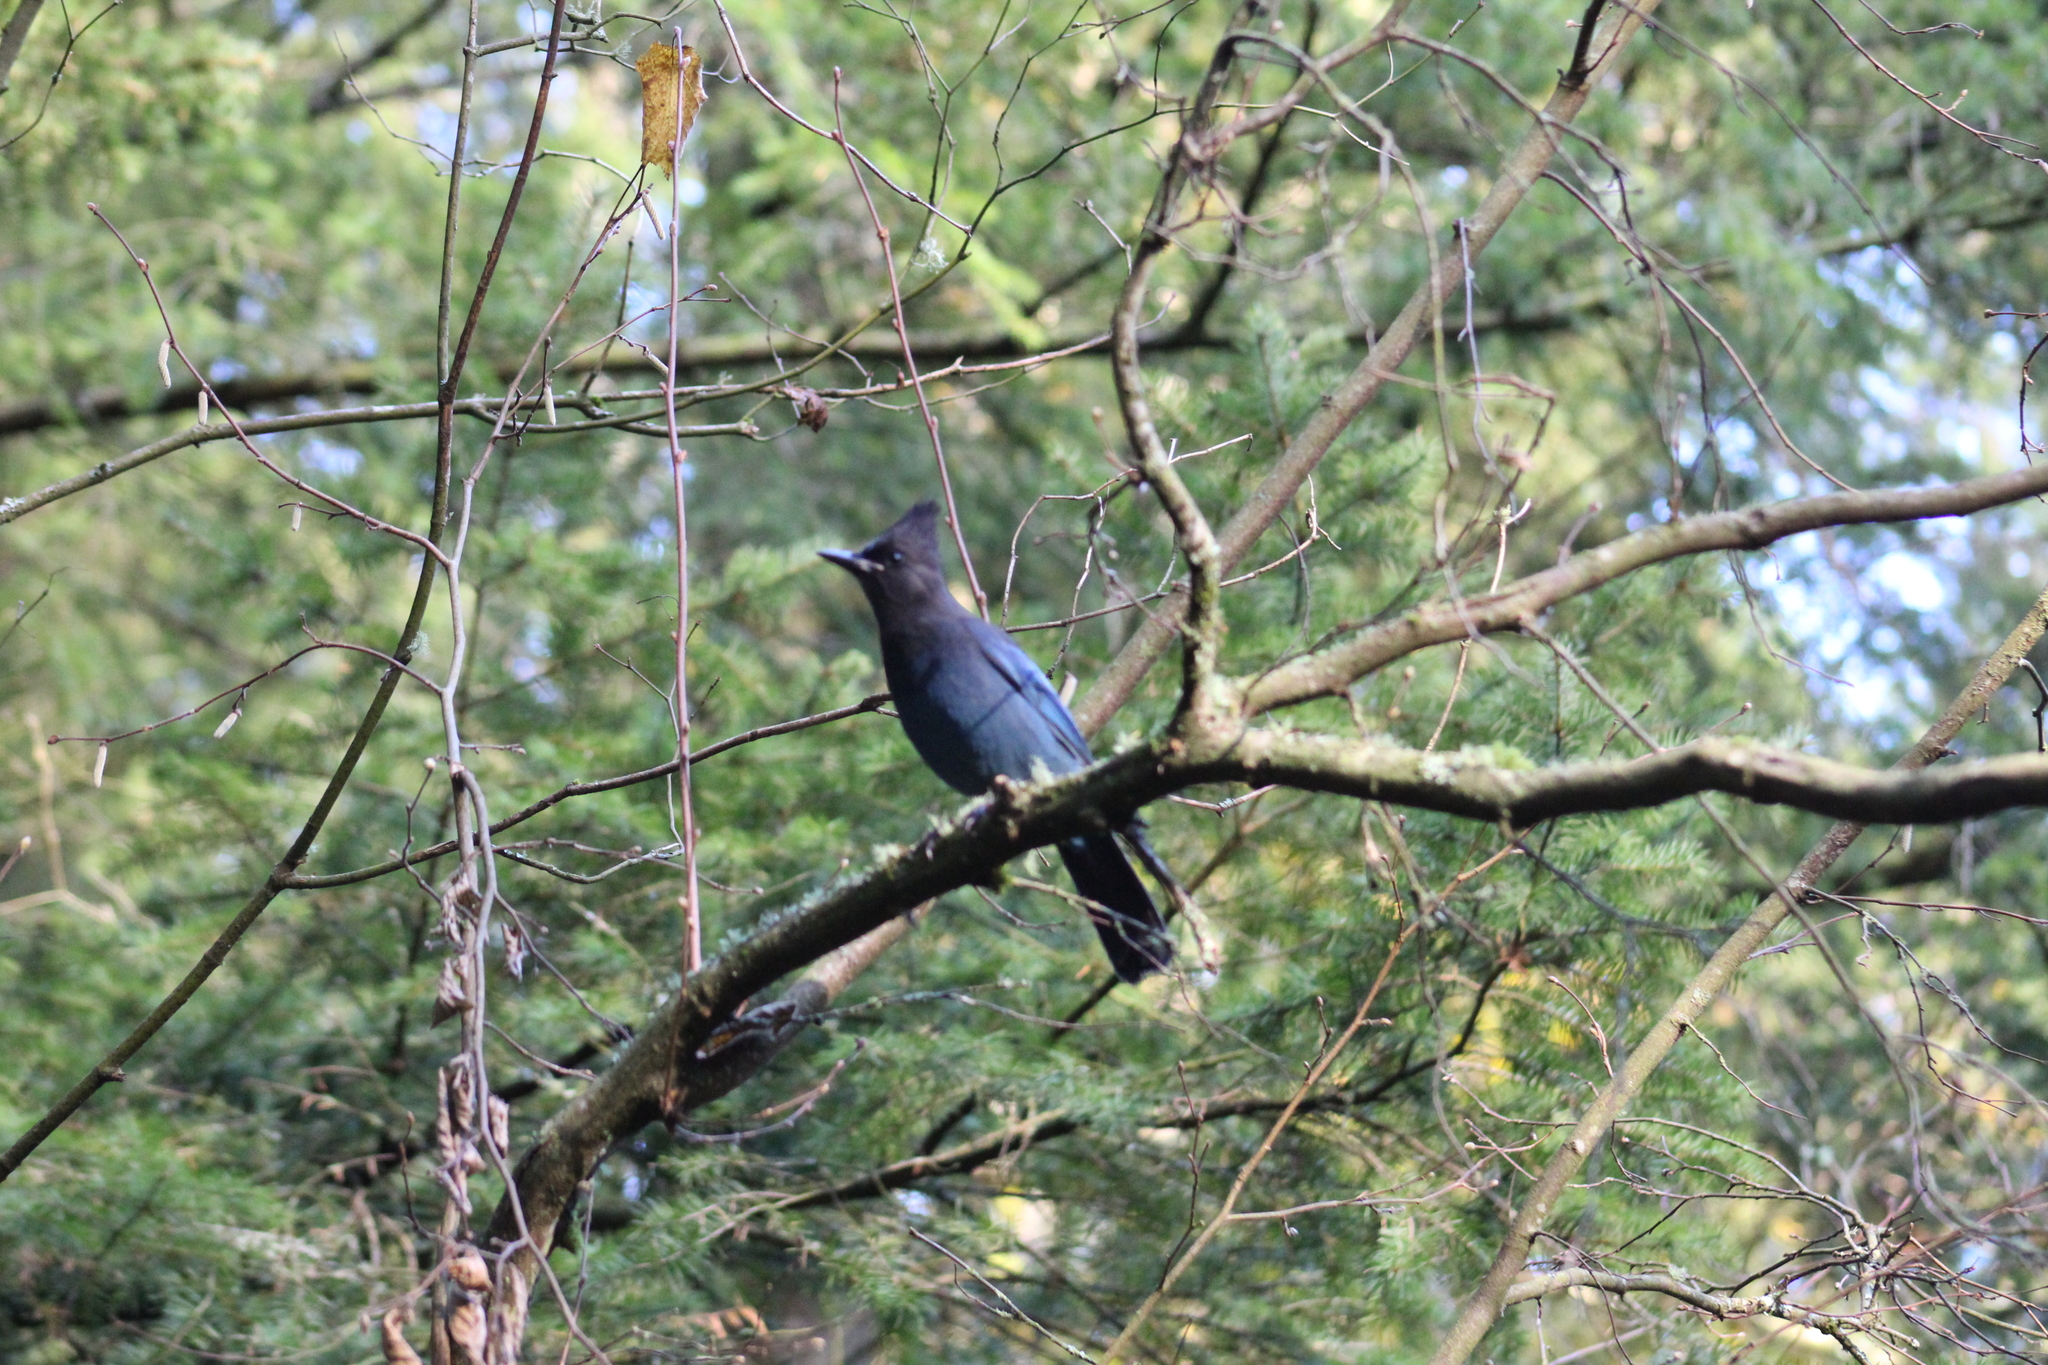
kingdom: Animalia
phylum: Chordata
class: Aves
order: Passeriformes
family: Corvidae
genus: Cyanocitta
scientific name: Cyanocitta stelleri
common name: Steller's jay
